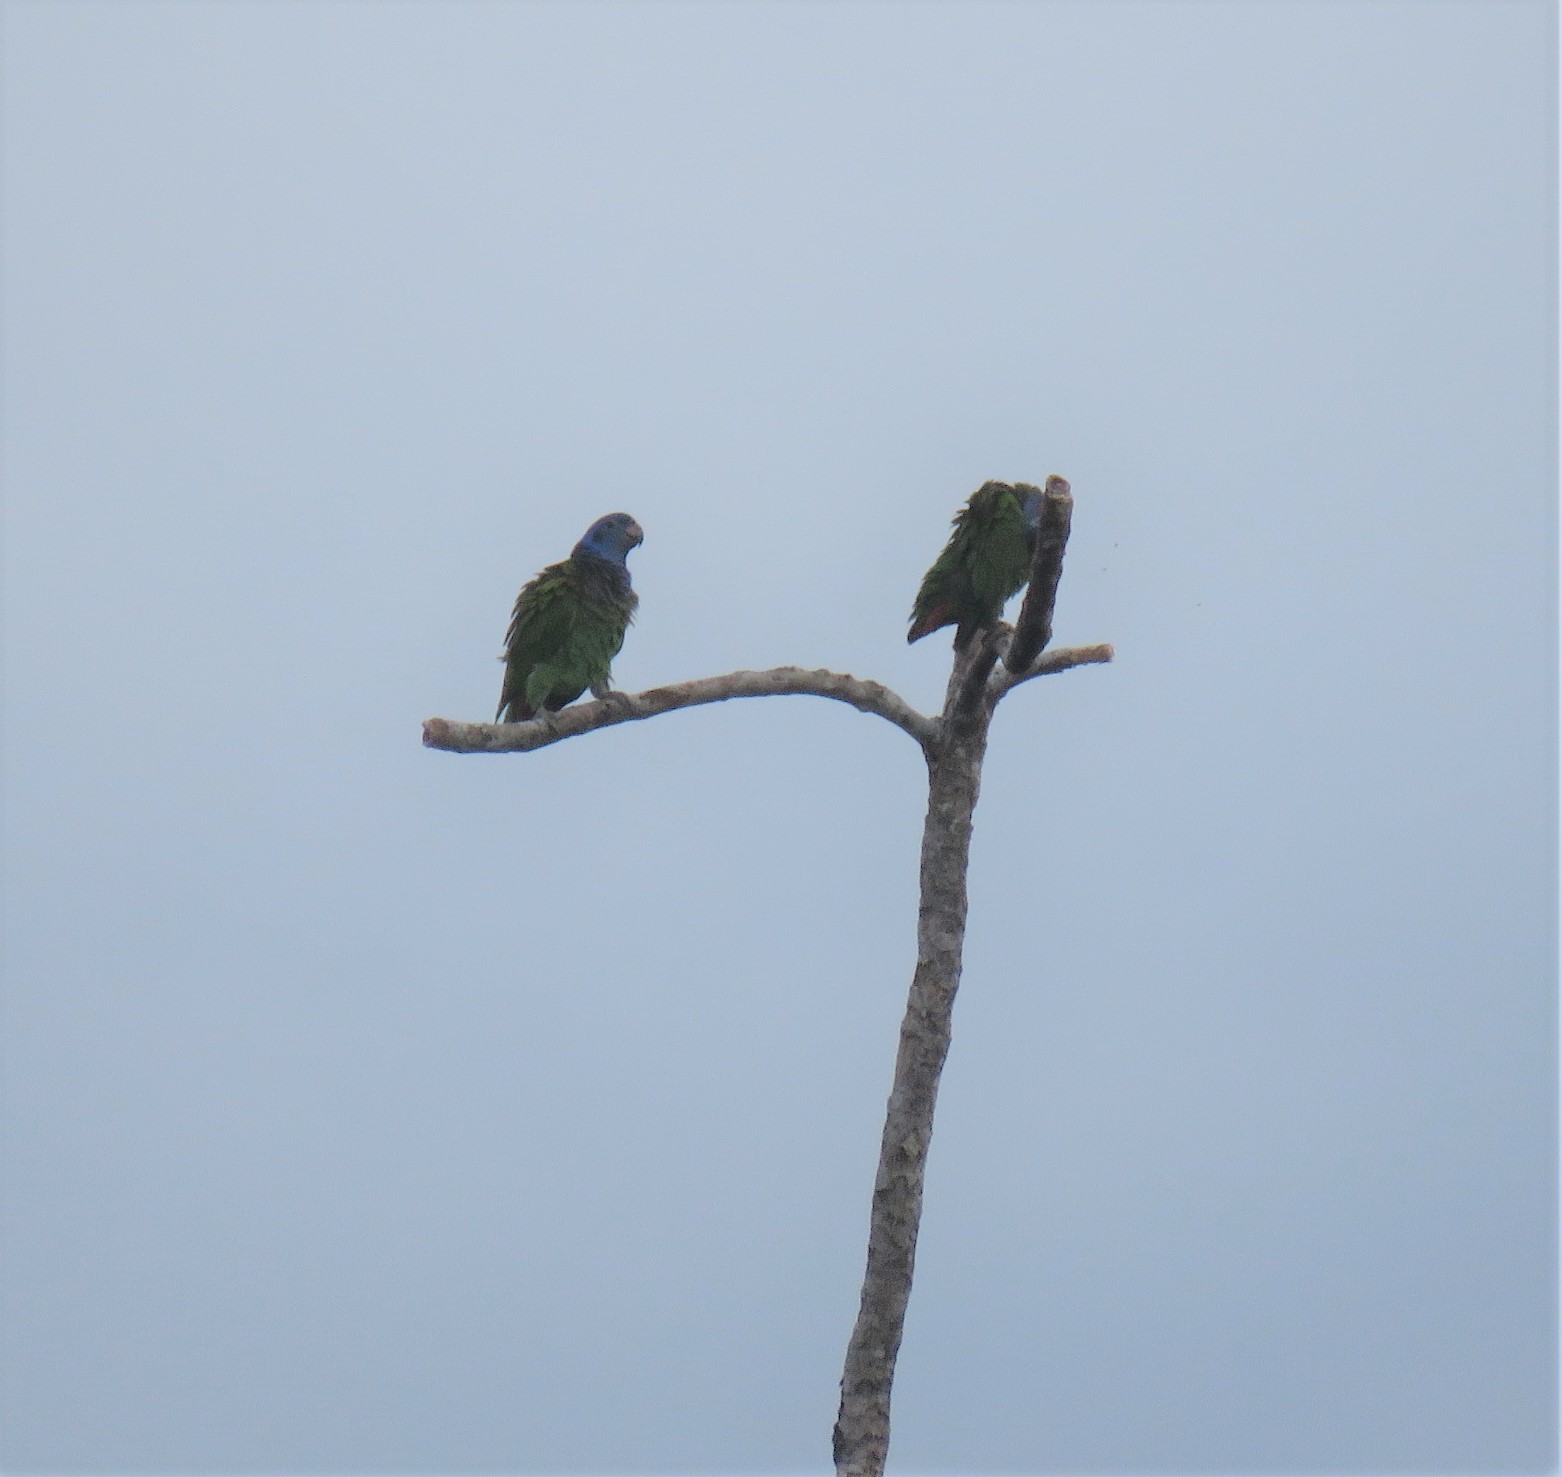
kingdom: Animalia
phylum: Chordata
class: Aves
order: Psittaciformes
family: Psittacidae
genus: Pionus
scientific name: Pionus menstruus
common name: Blue-headed parrot
